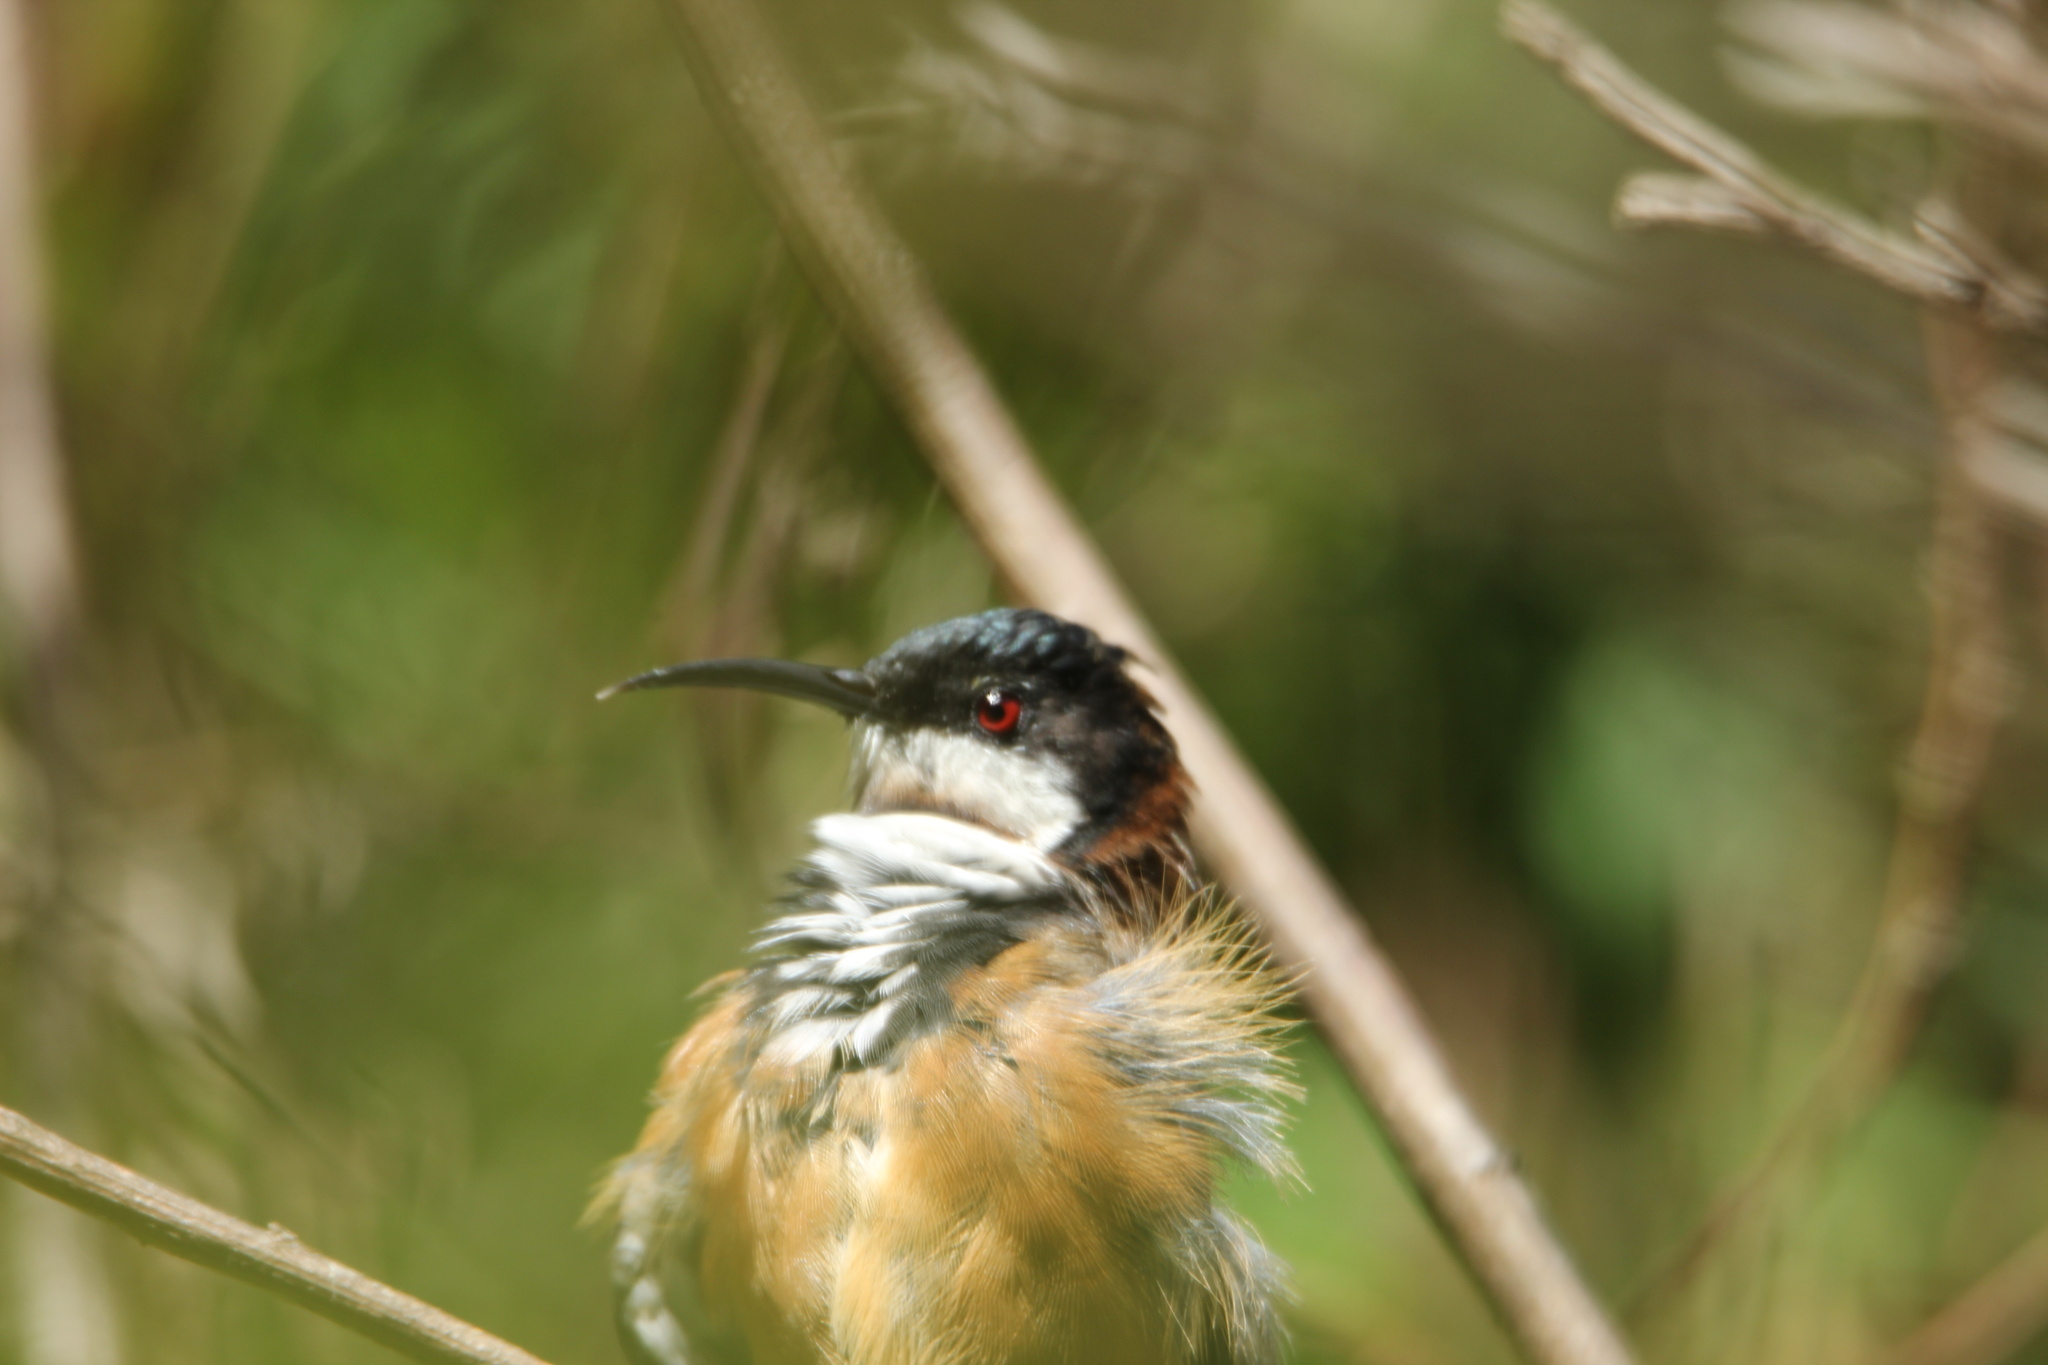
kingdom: Animalia
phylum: Chordata
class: Aves
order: Passeriformes
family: Meliphagidae
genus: Acanthorhynchus
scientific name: Acanthorhynchus tenuirostris
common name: Eastern spinebill
